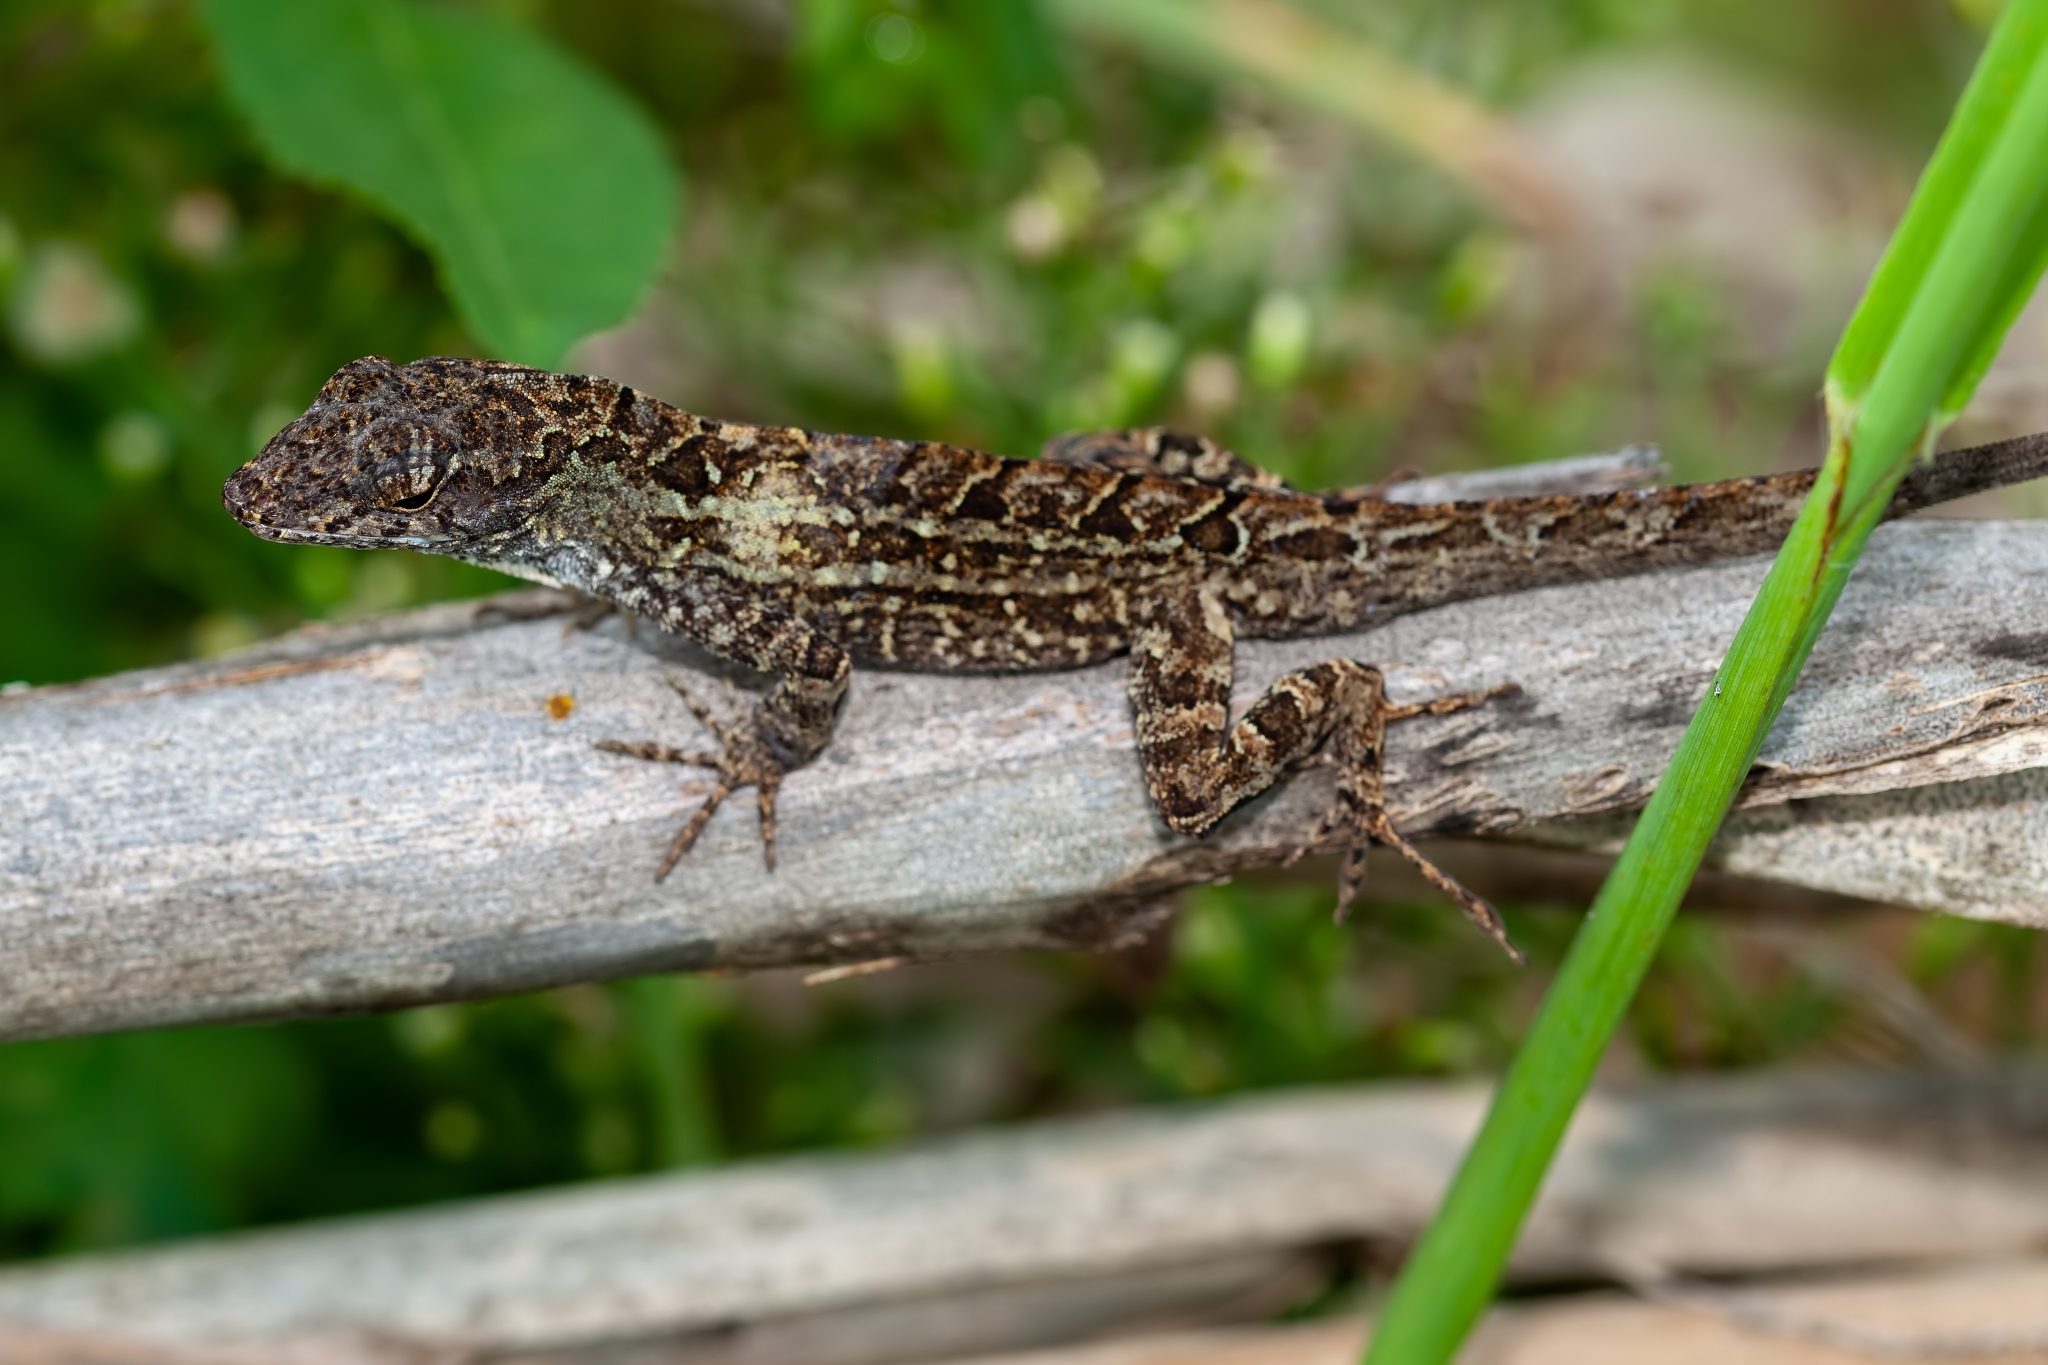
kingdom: Animalia
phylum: Chordata
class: Squamata
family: Dactyloidae
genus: Anolis
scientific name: Anolis sagrei
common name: Brown anole
